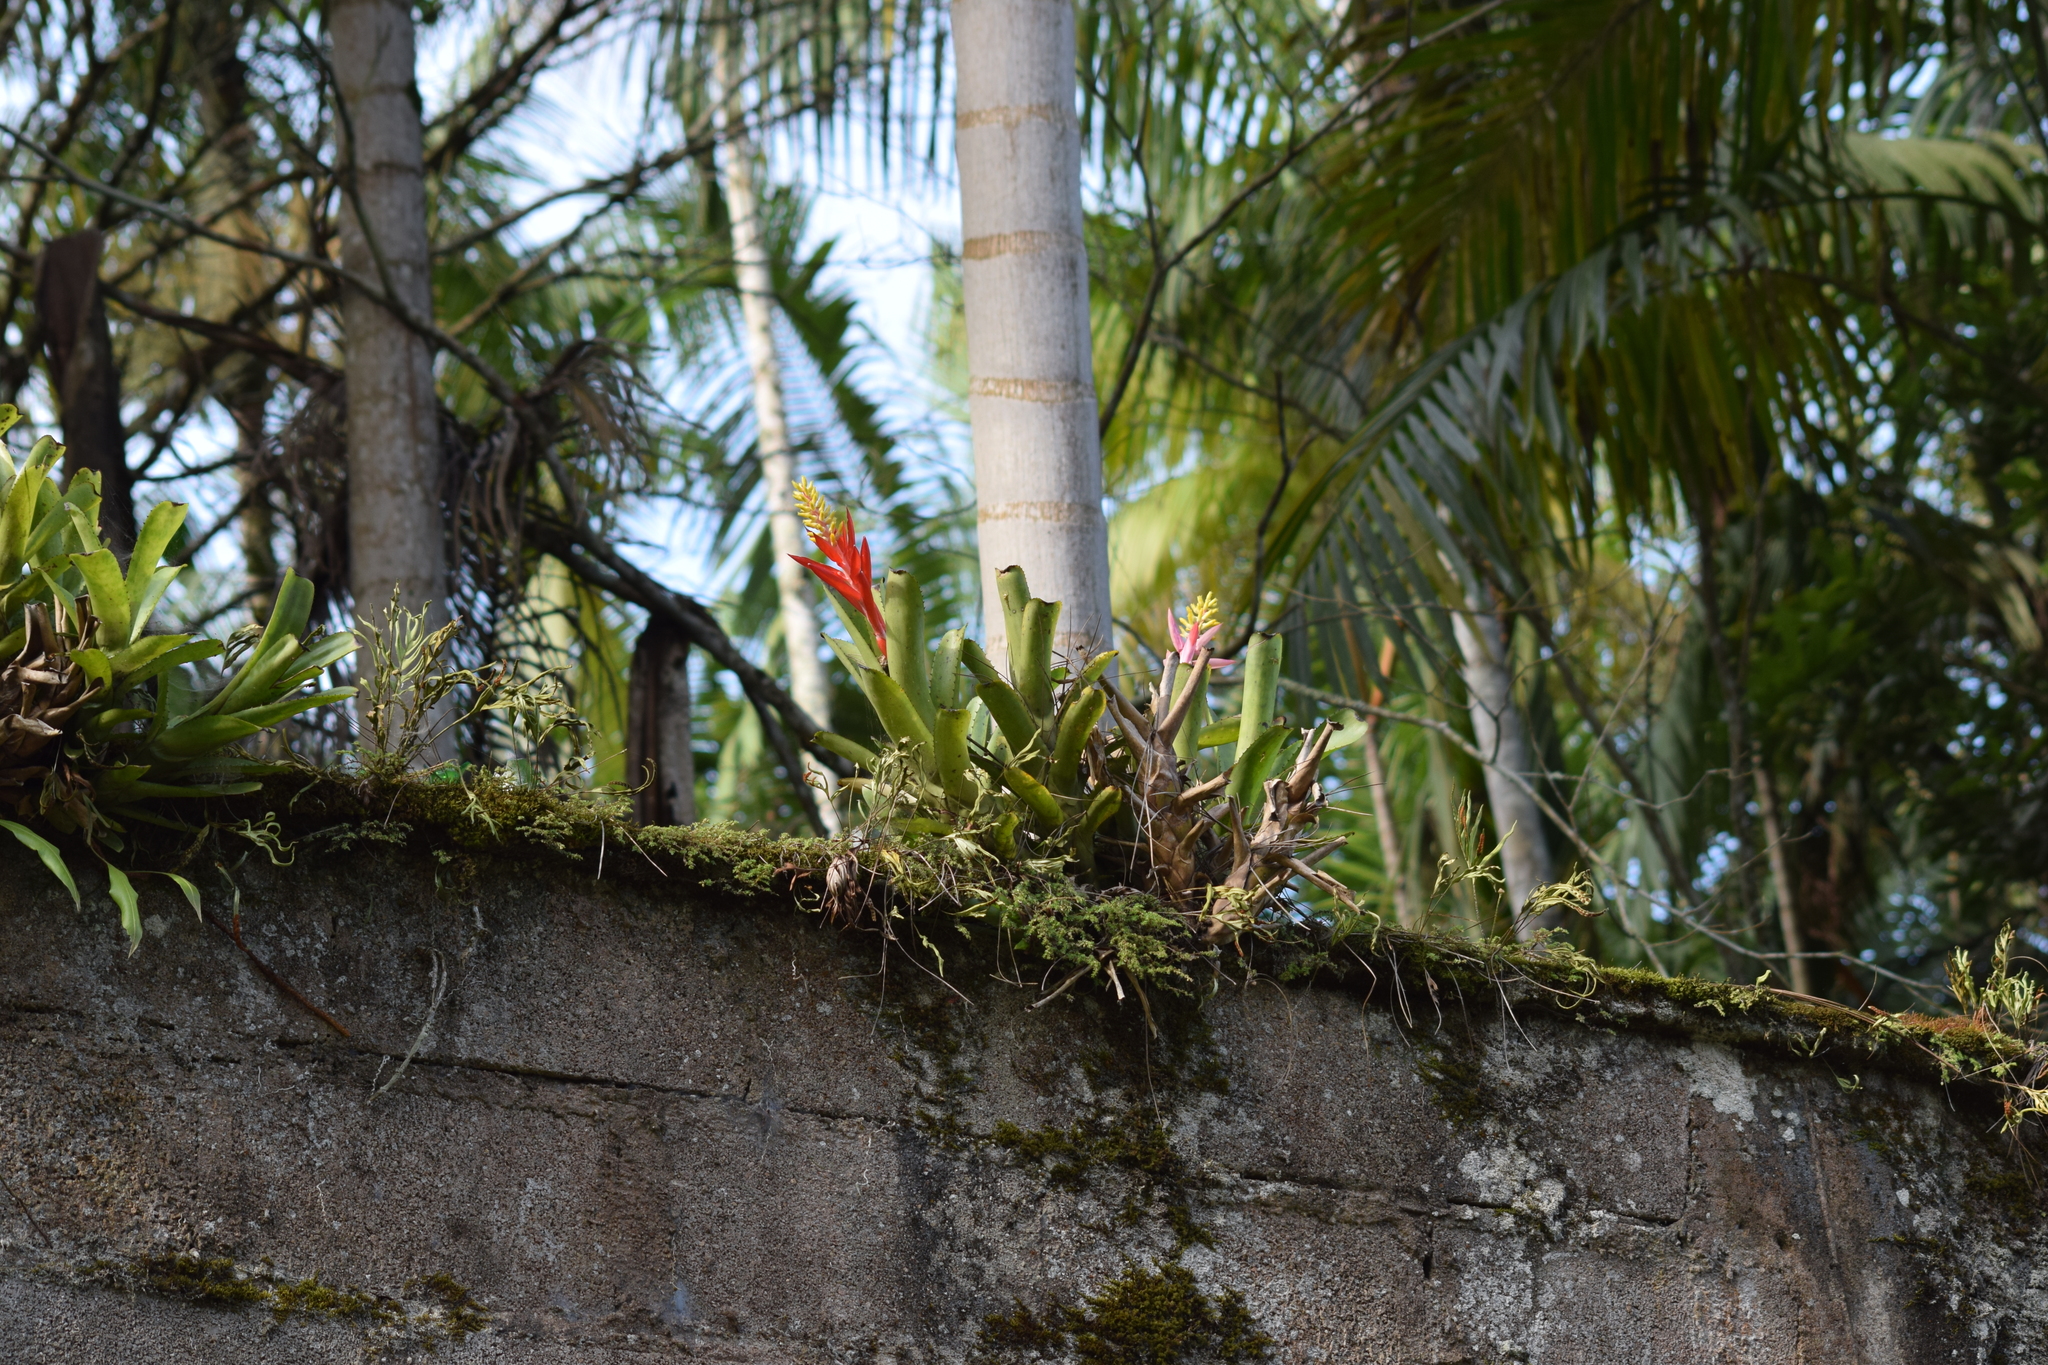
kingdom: Plantae
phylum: Tracheophyta
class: Liliopsida
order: Poales
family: Bromeliaceae
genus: Aechmea
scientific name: Aechmea nudicaulis
